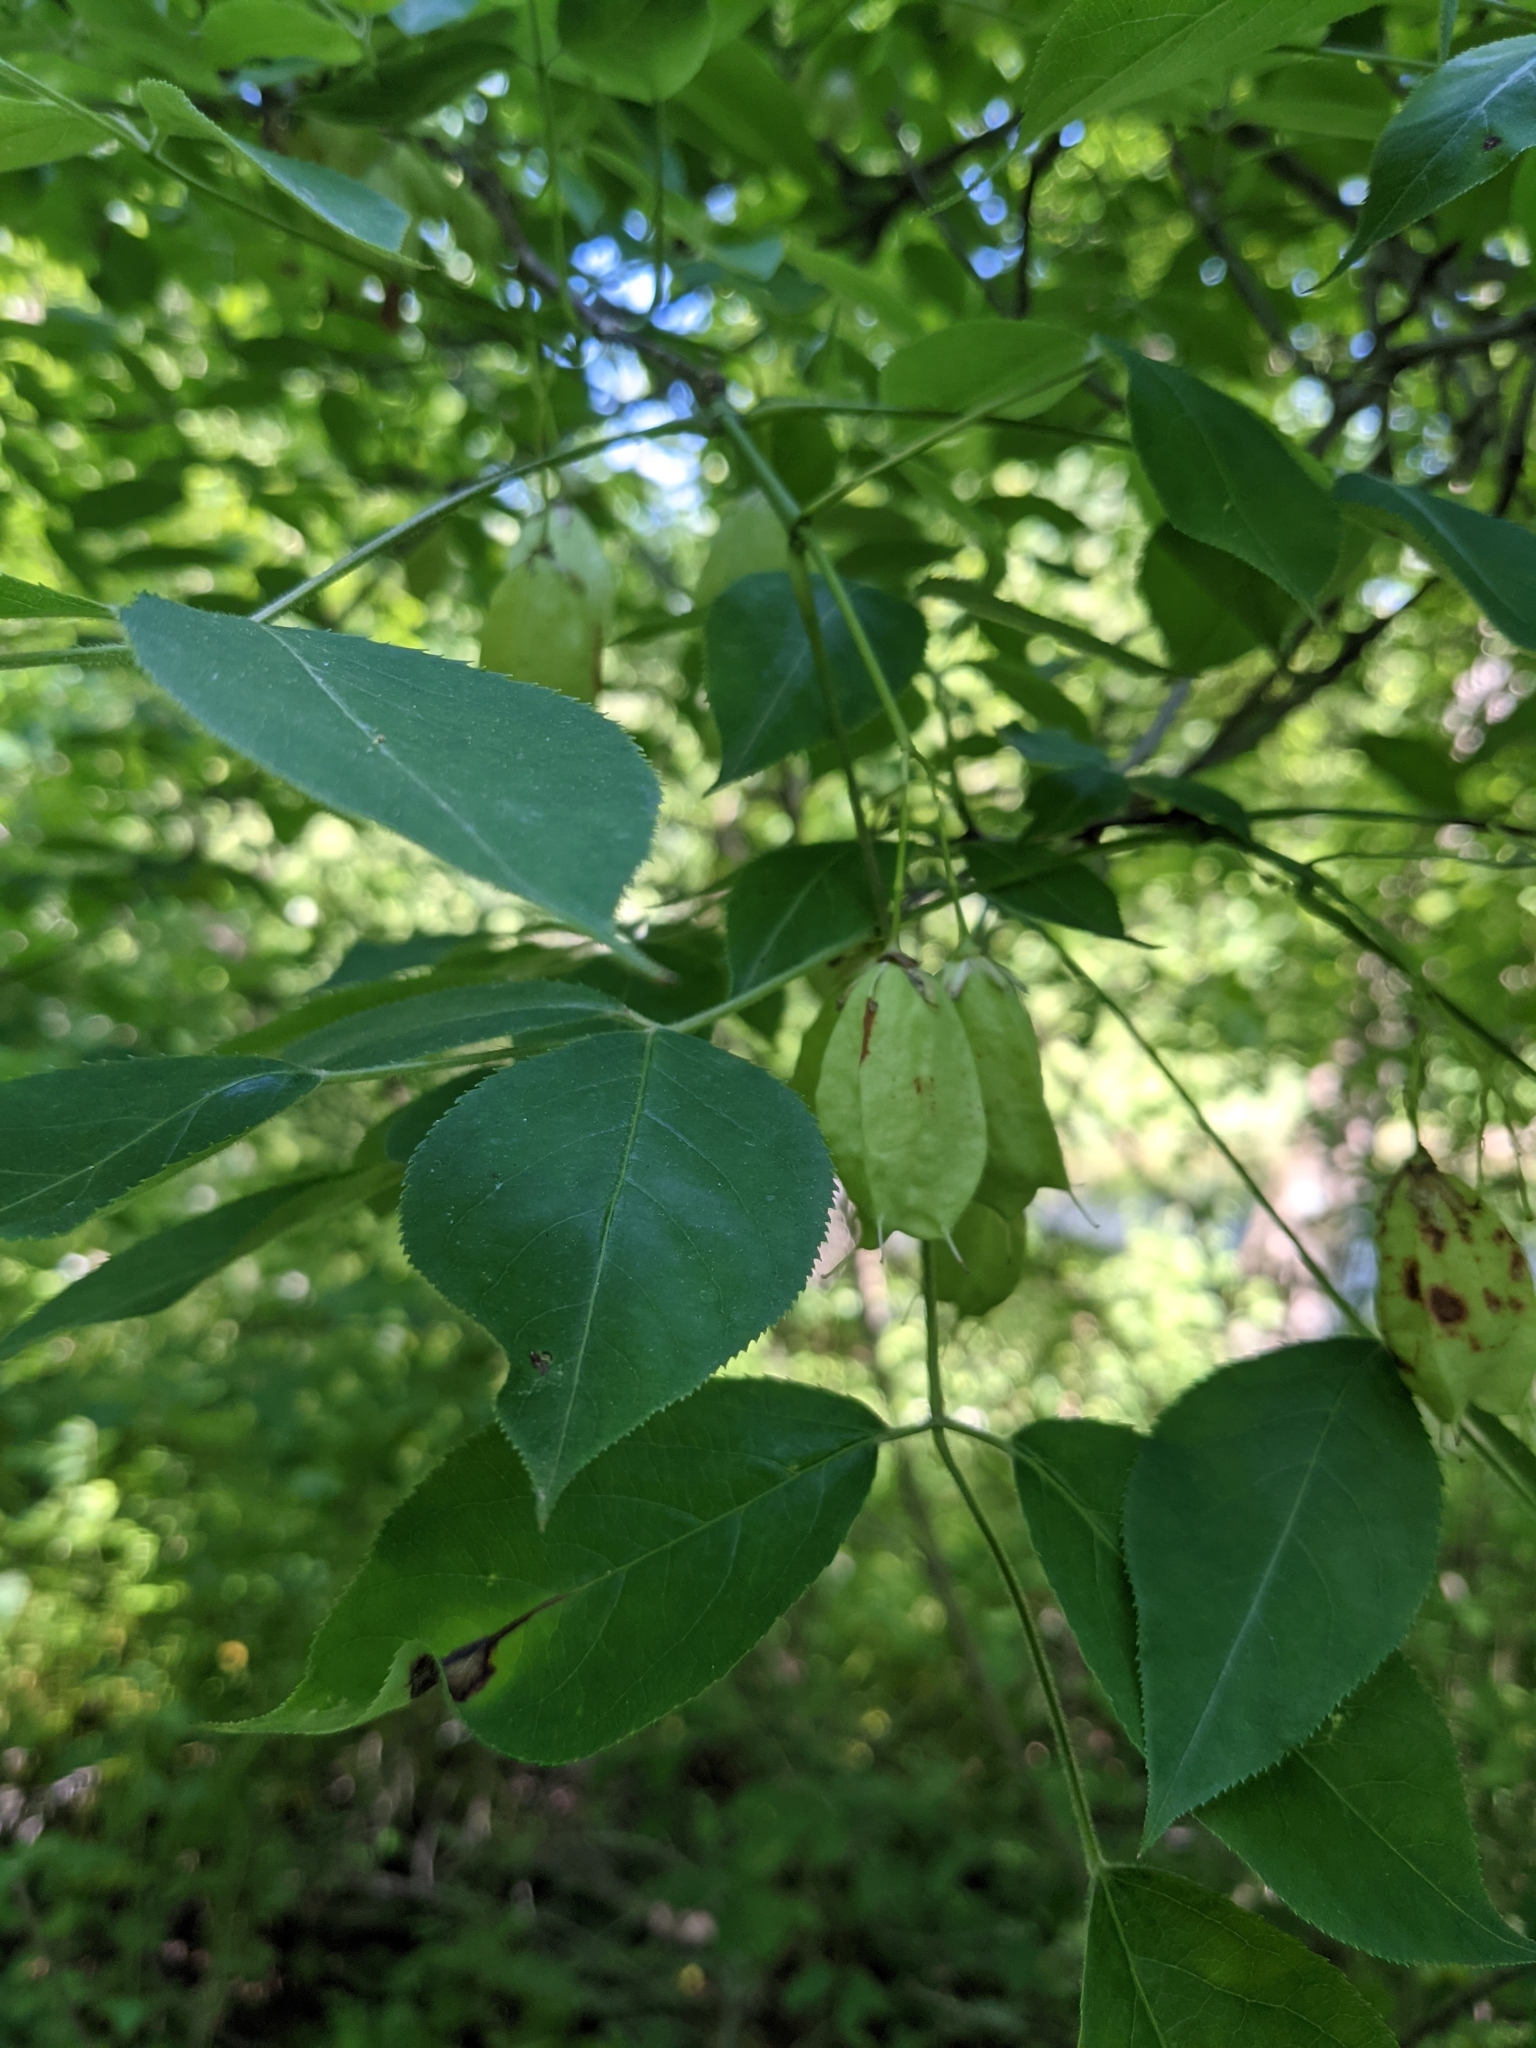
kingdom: Plantae
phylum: Tracheophyta
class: Magnoliopsida
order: Crossosomatales
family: Staphyleaceae
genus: Staphylea
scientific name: Staphylea trifolia
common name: American bladdernut
